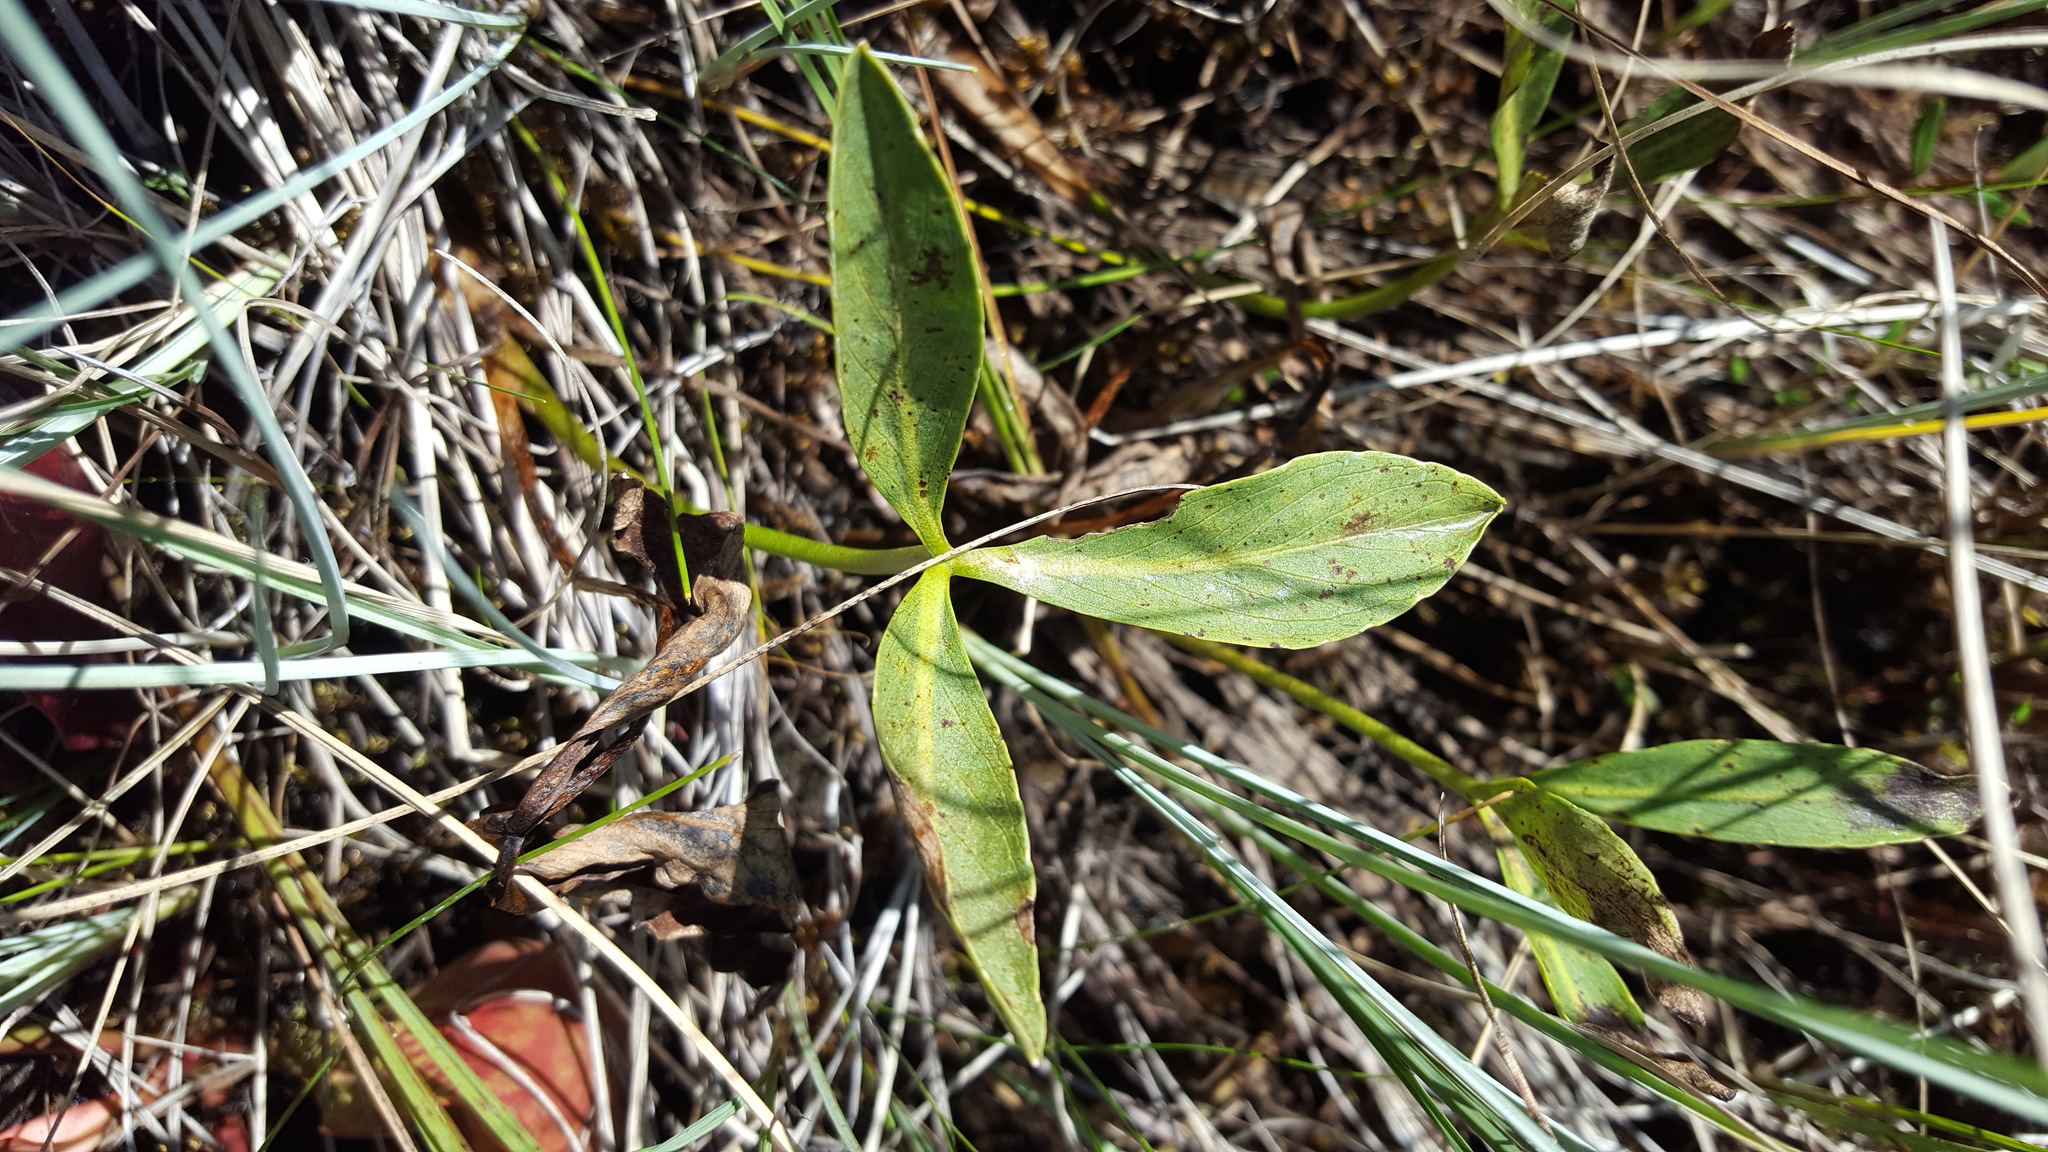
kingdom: Plantae
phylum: Tracheophyta
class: Magnoliopsida
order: Asterales
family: Menyanthaceae
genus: Menyanthes
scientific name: Menyanthes trifoliata
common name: Bogbean
